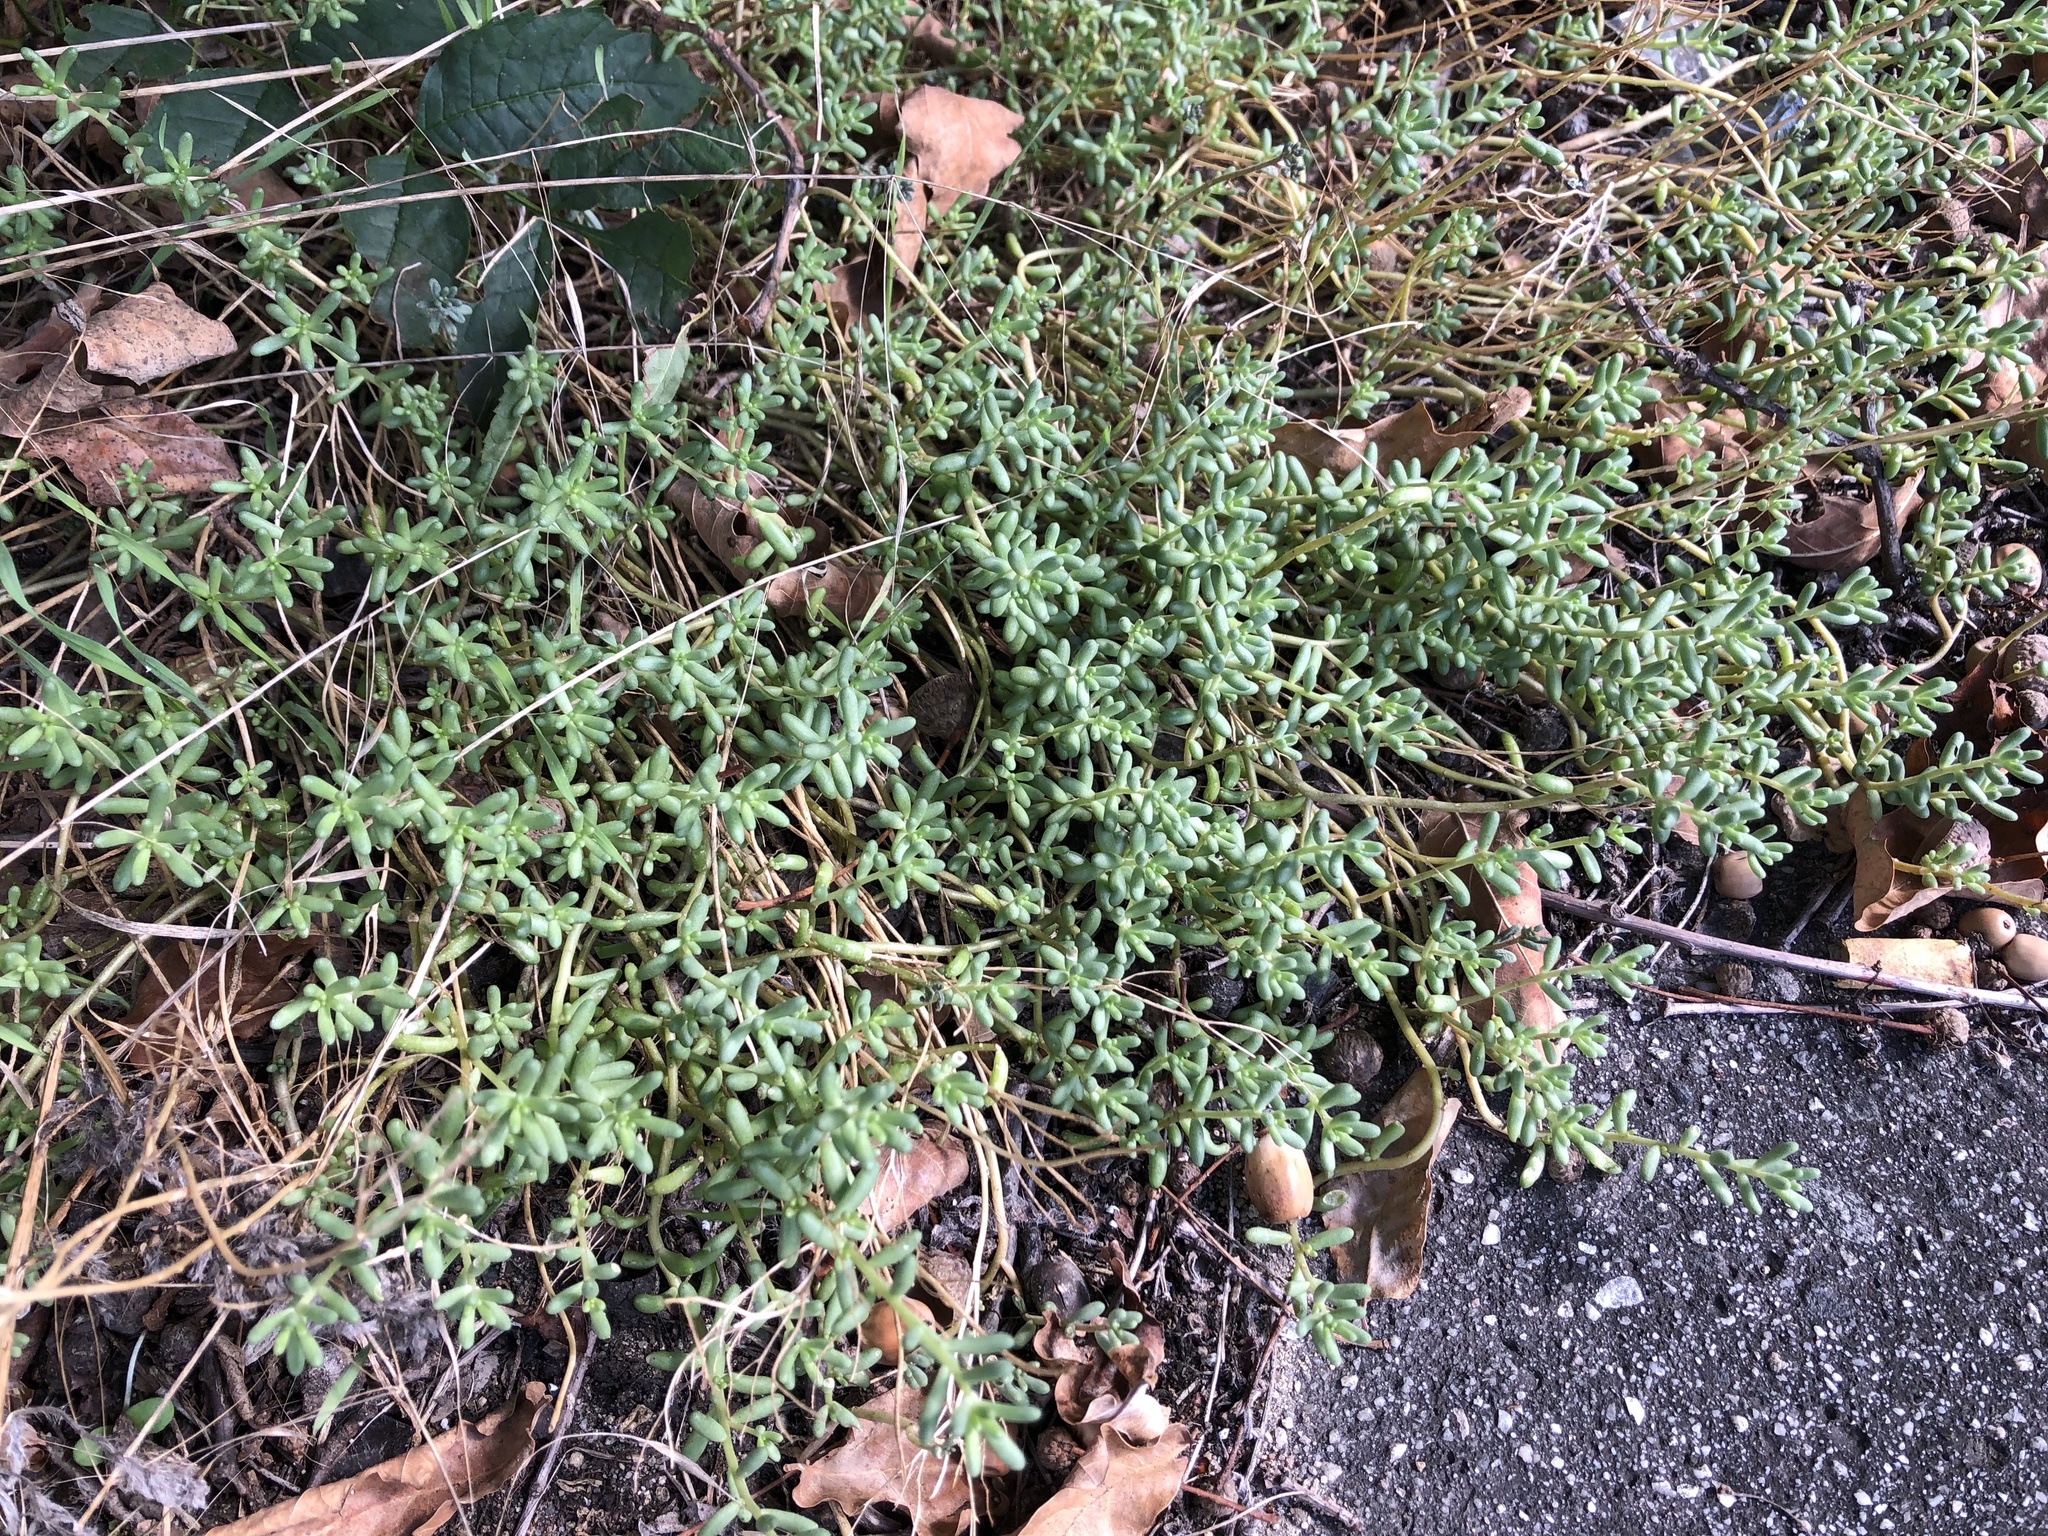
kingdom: Plantae
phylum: Tracheophyta
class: Magnoliopsida
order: Saxifragales
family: Crassulaceae
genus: Sedum
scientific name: Sedum album
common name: White stonecrop
